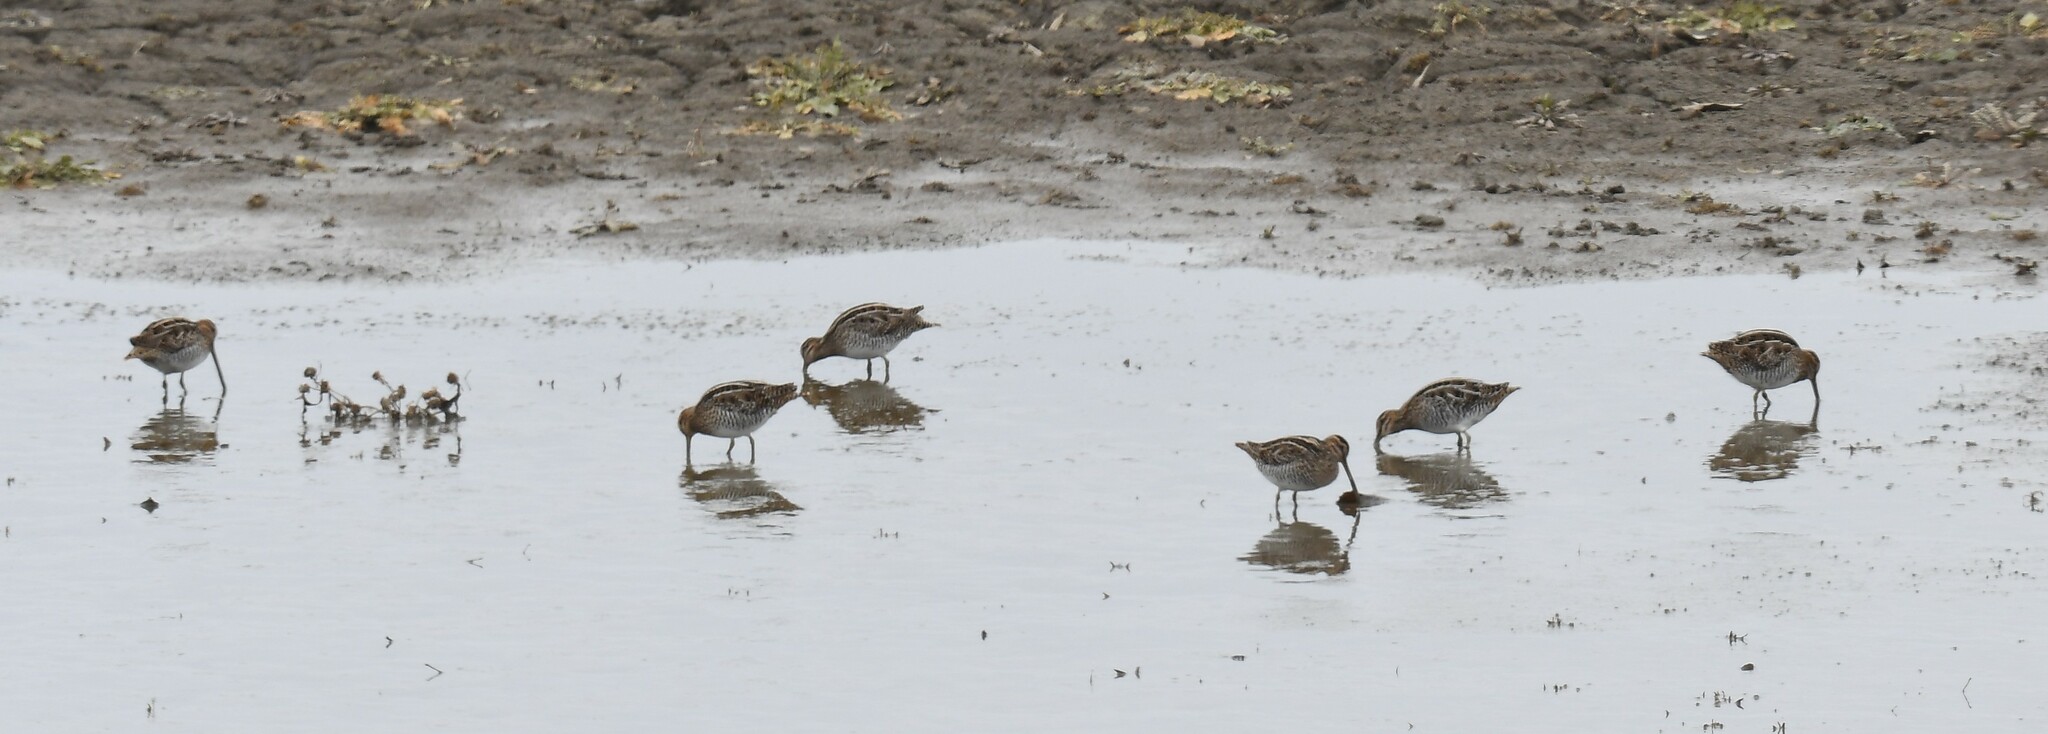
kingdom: Animalia
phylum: Chordata
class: Aves
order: Charadriiformes
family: Scolopacidae
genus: Gallinago
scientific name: Gallinago delicata
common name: Wilson's snipe
